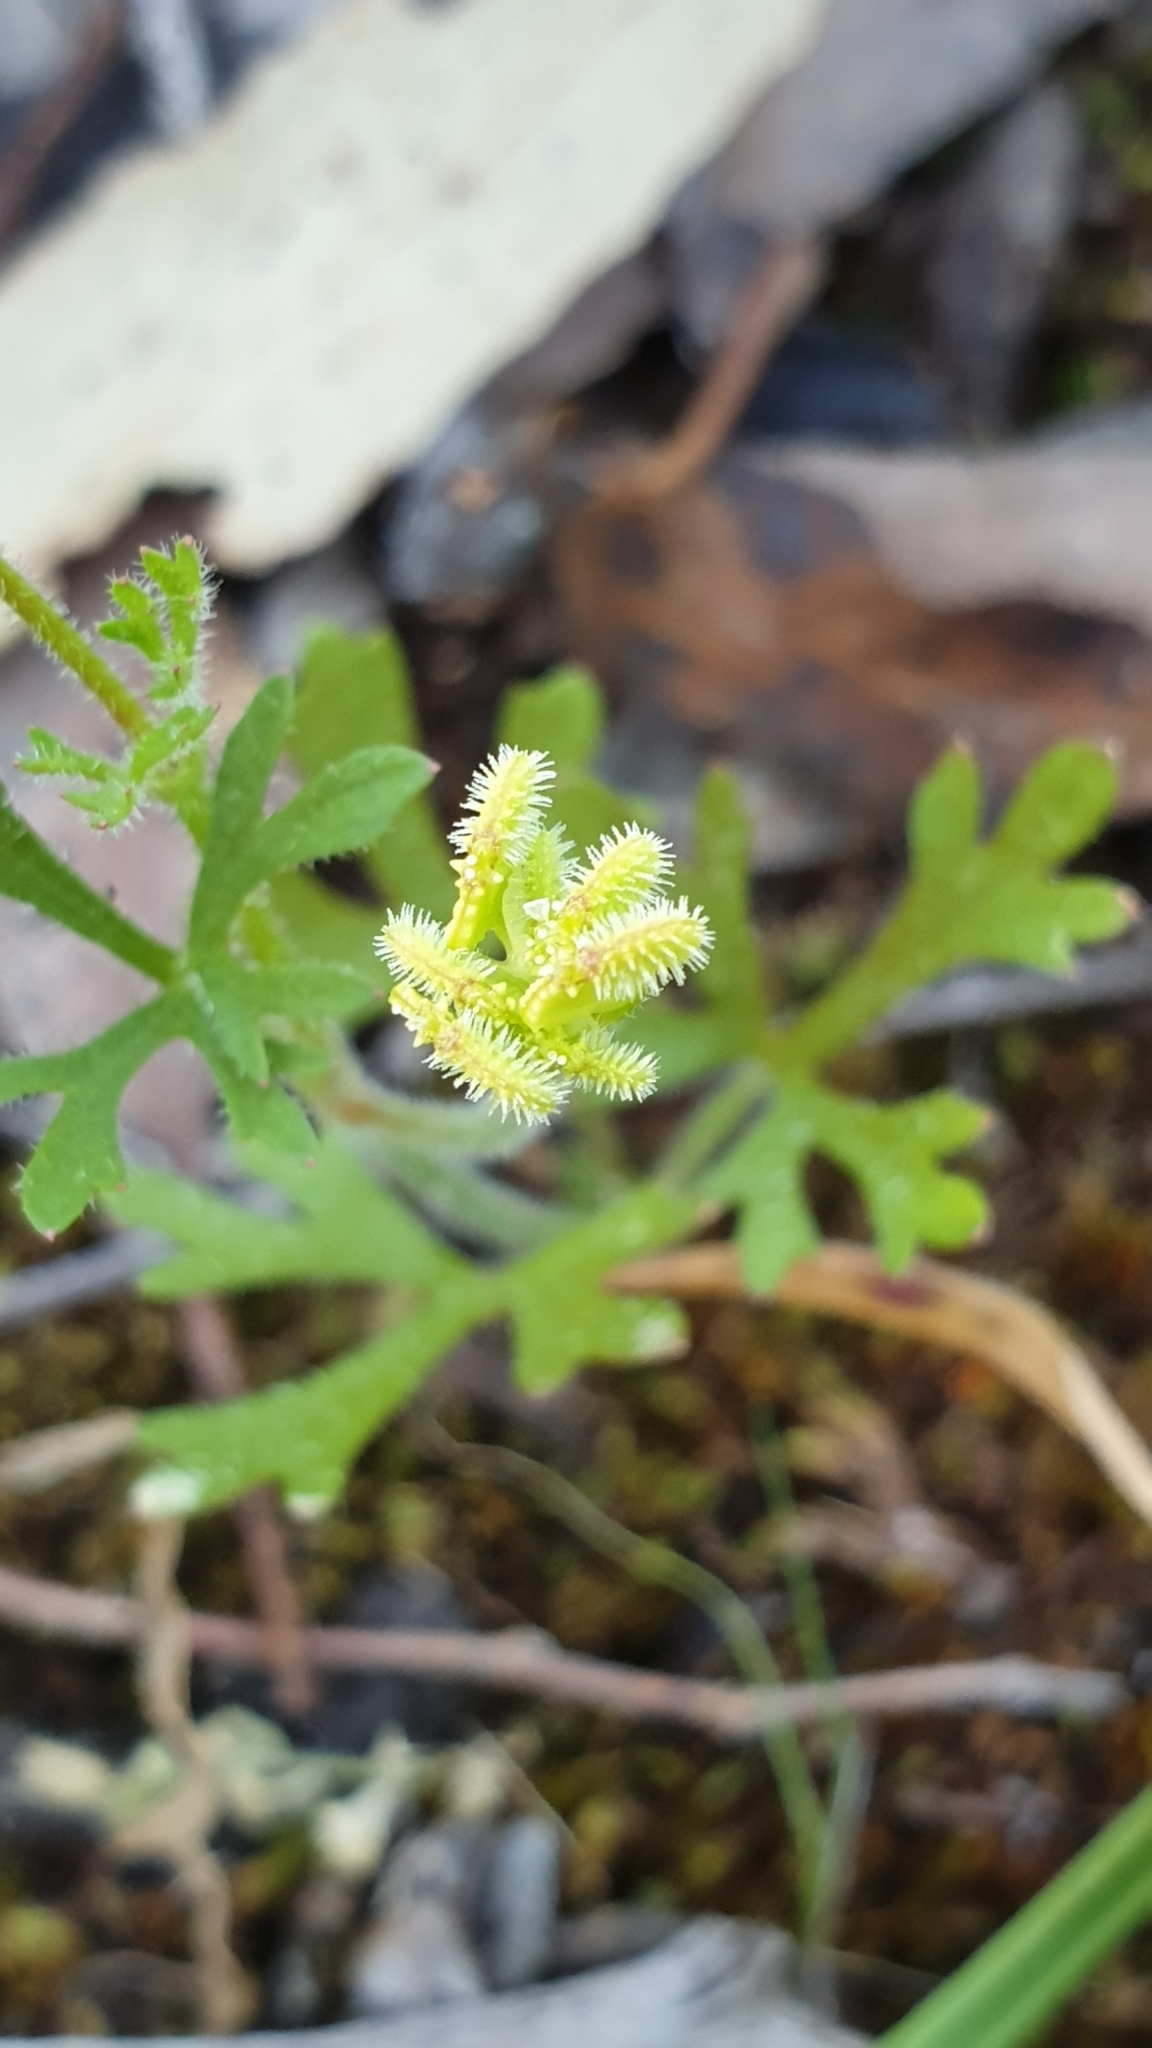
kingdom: Plantae
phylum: Tracheophyta
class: Magnoliopsida
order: Apiales
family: Araliaceae
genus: Trachymene
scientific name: Trachymene pilosa
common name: Dwarf trachymene
